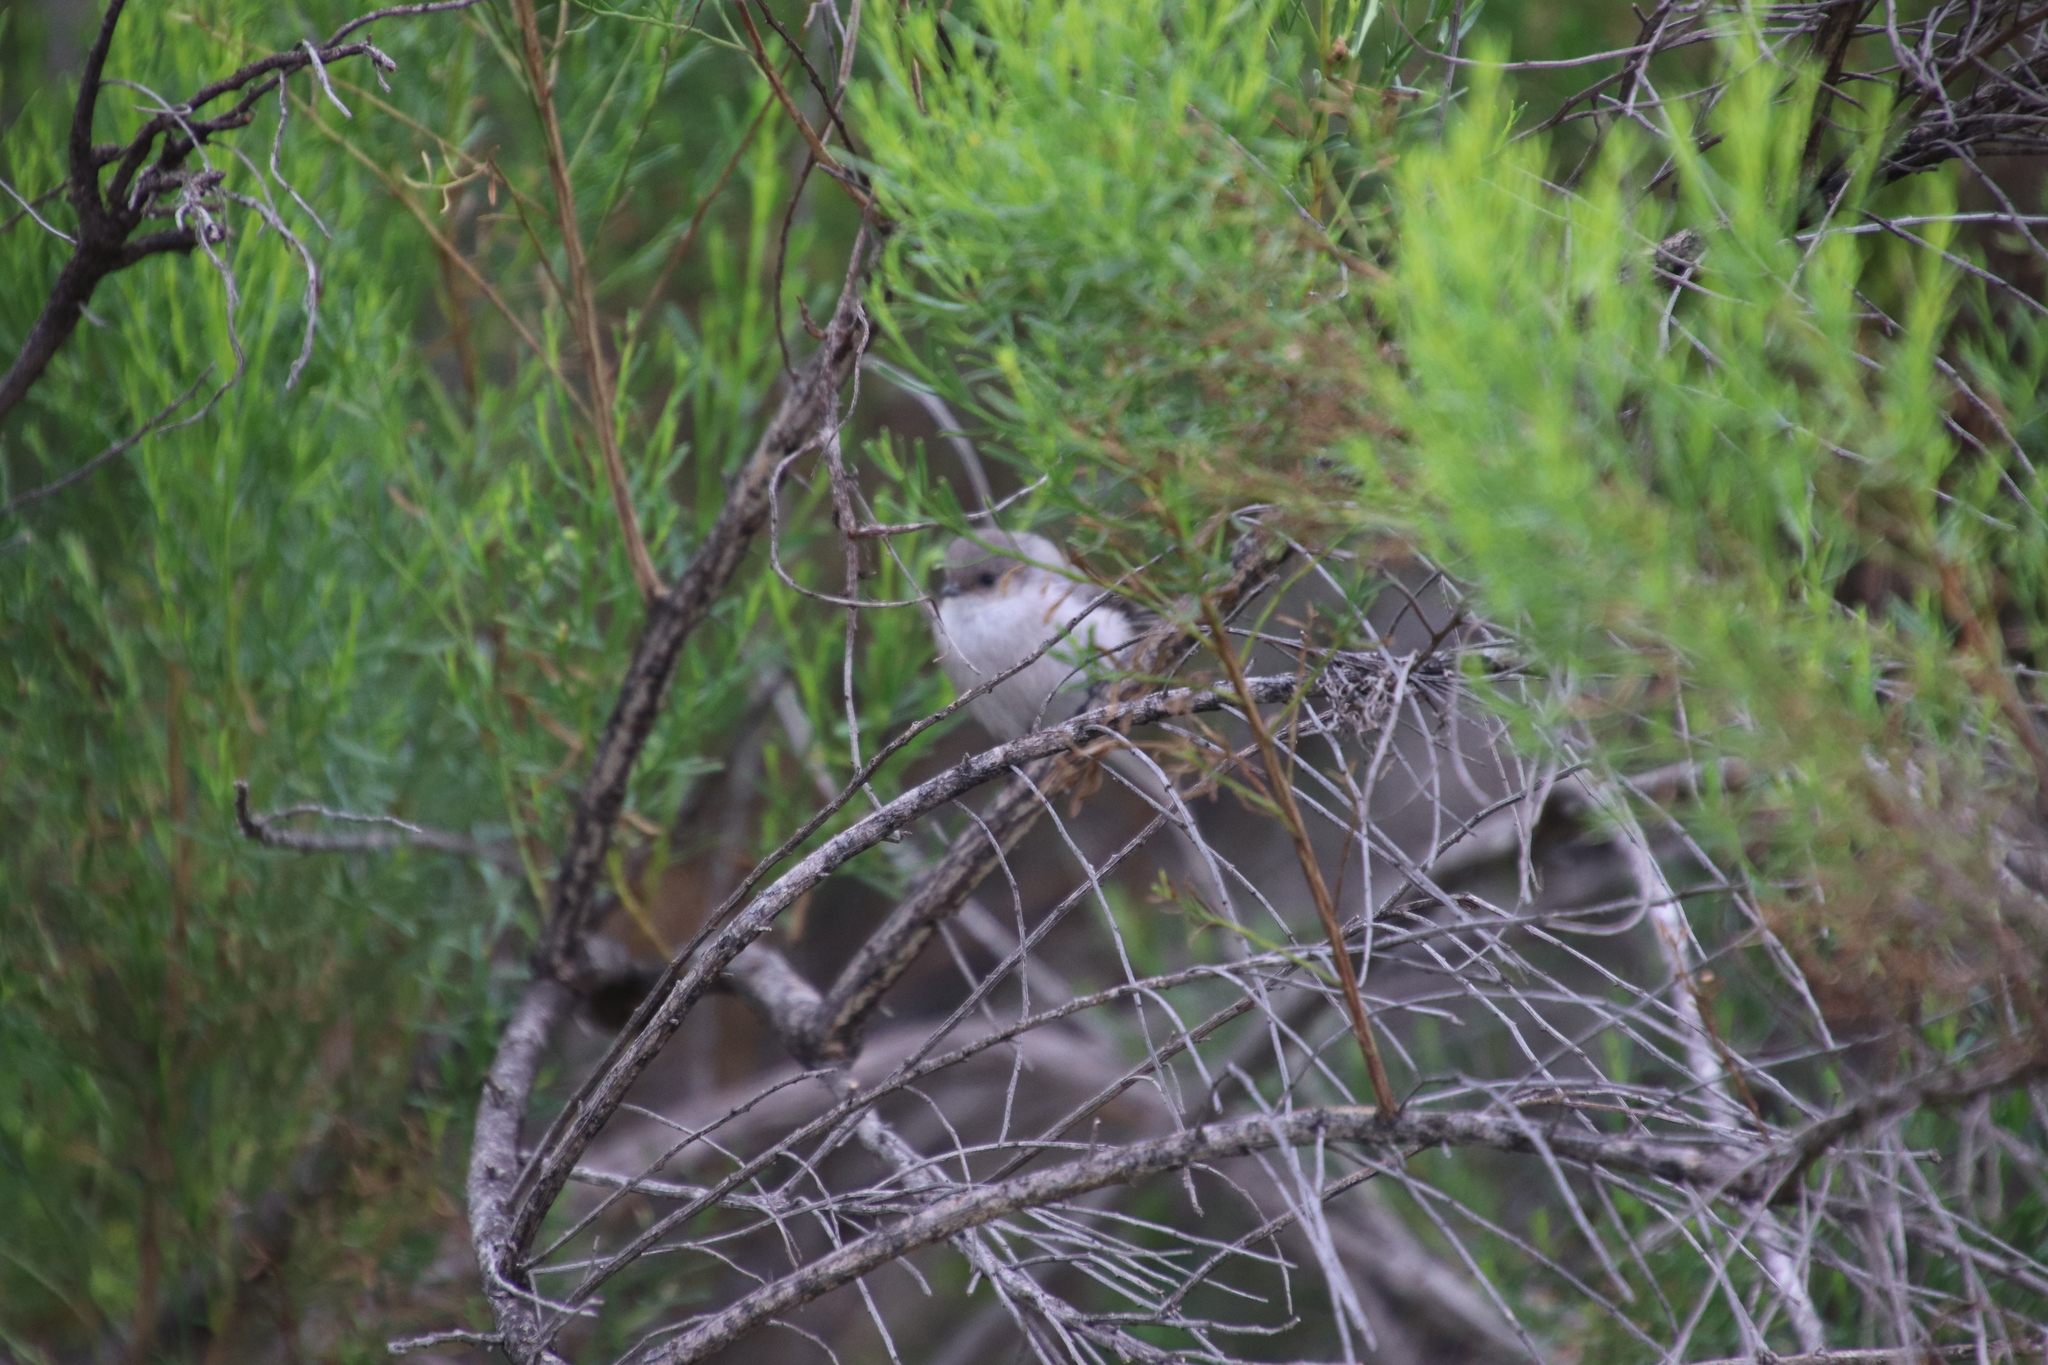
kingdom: Animalia
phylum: Chordata
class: Aves
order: Passeriformes
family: Aegithalidae
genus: Psaltriparus
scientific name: Psaltriparus minimus
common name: American bushtit
